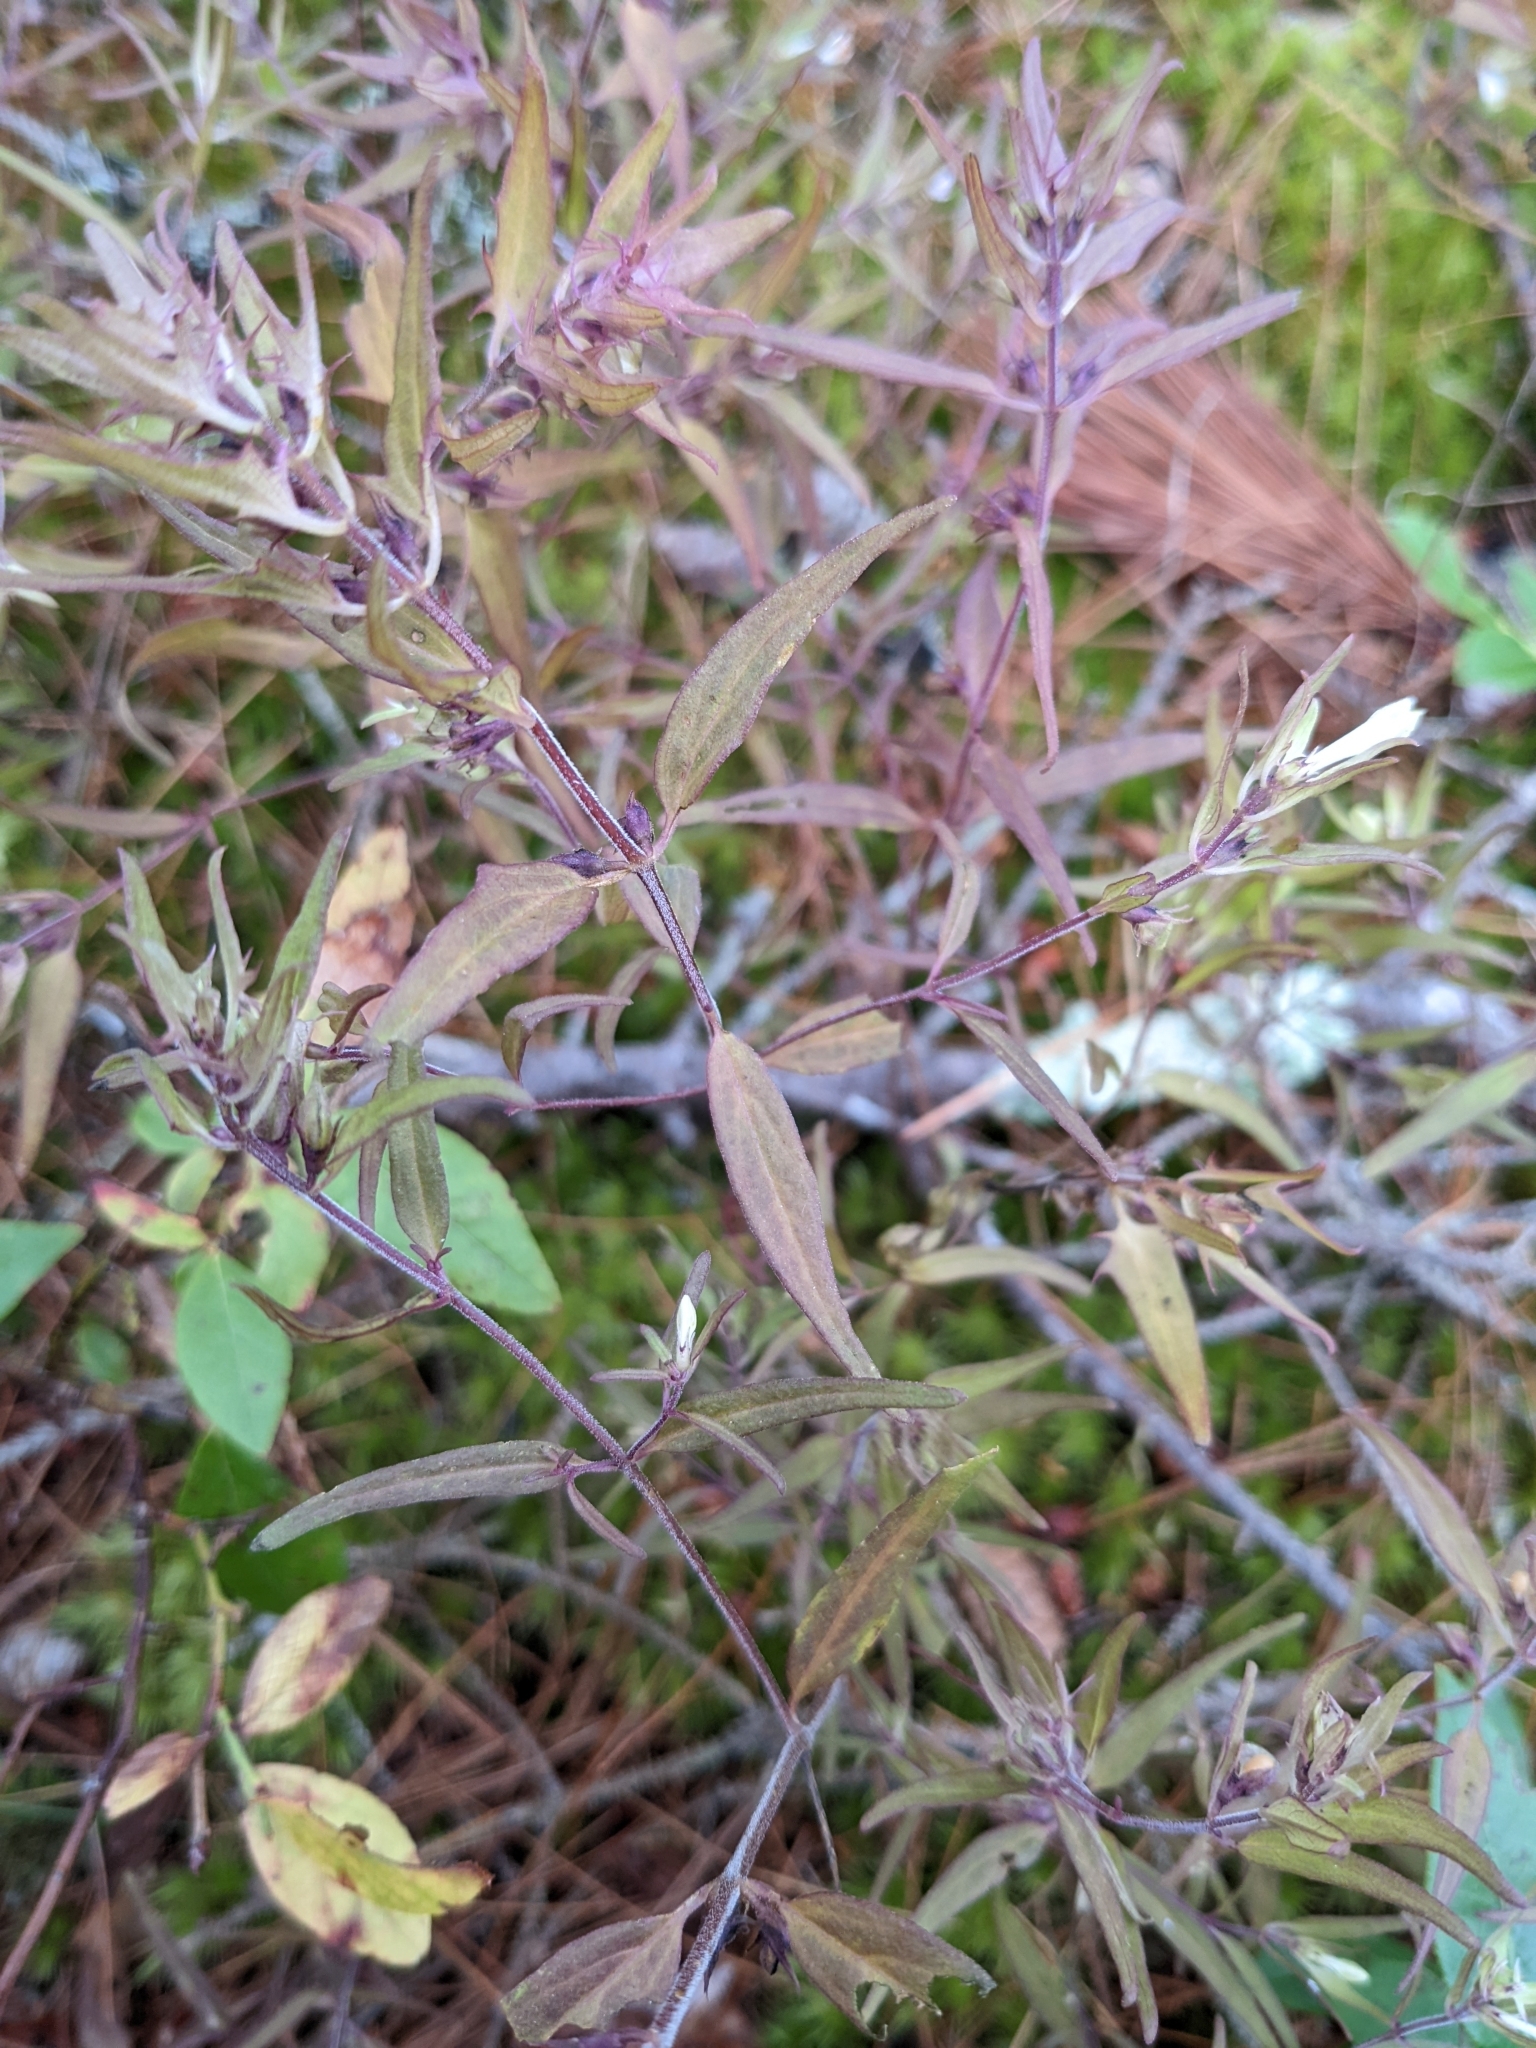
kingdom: Plantae
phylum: Tracheophyta
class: Magnoliopsida
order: Lamiales
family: Orobanchaceae
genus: Melampyrum
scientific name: Melampyrum lineare
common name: American cow-wheat
